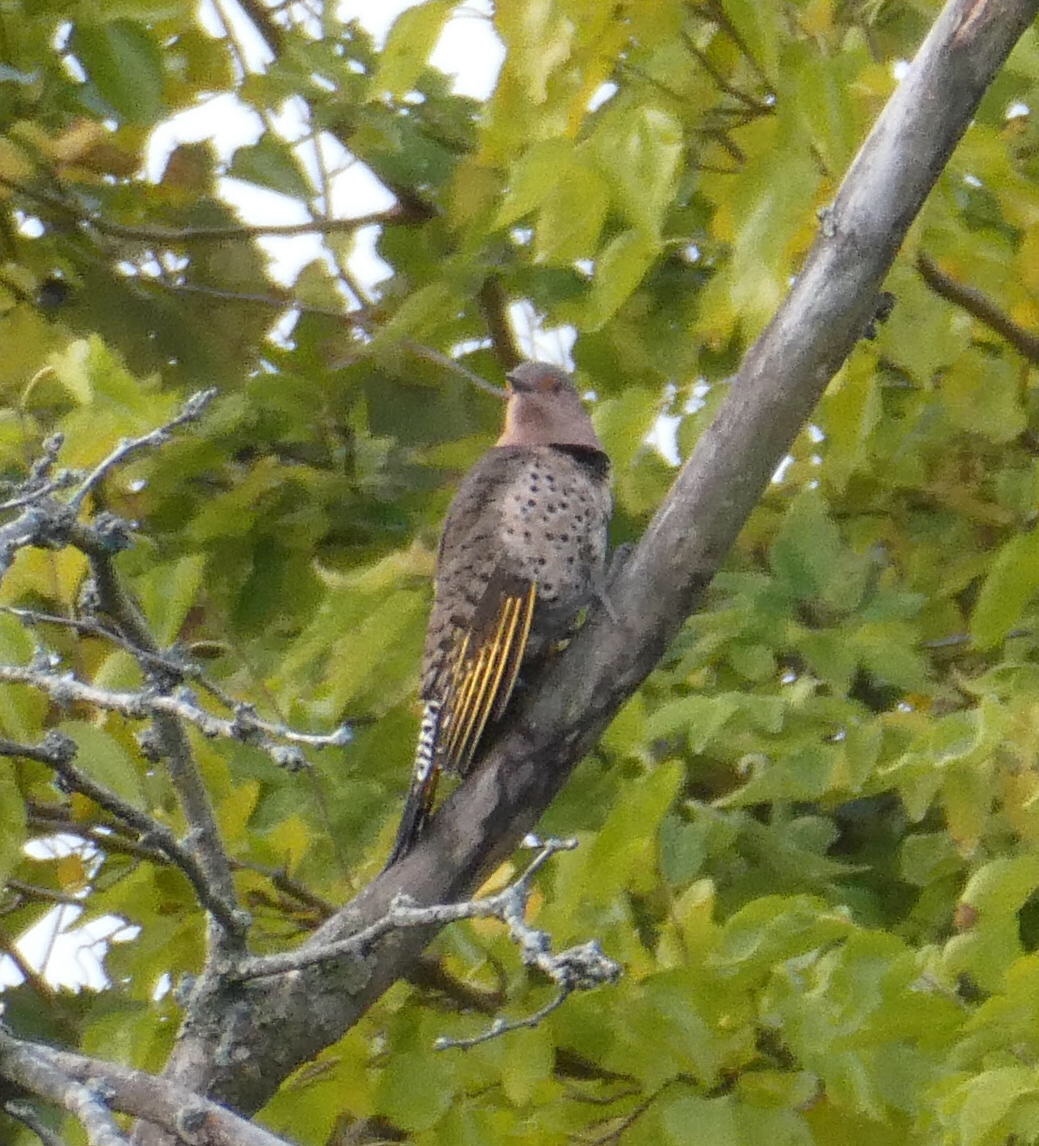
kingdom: Animalia
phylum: Chordata
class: Aves
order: Piciformes
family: Picidae
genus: Colaptes
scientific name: Colaptes auratus
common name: Northern flicker
